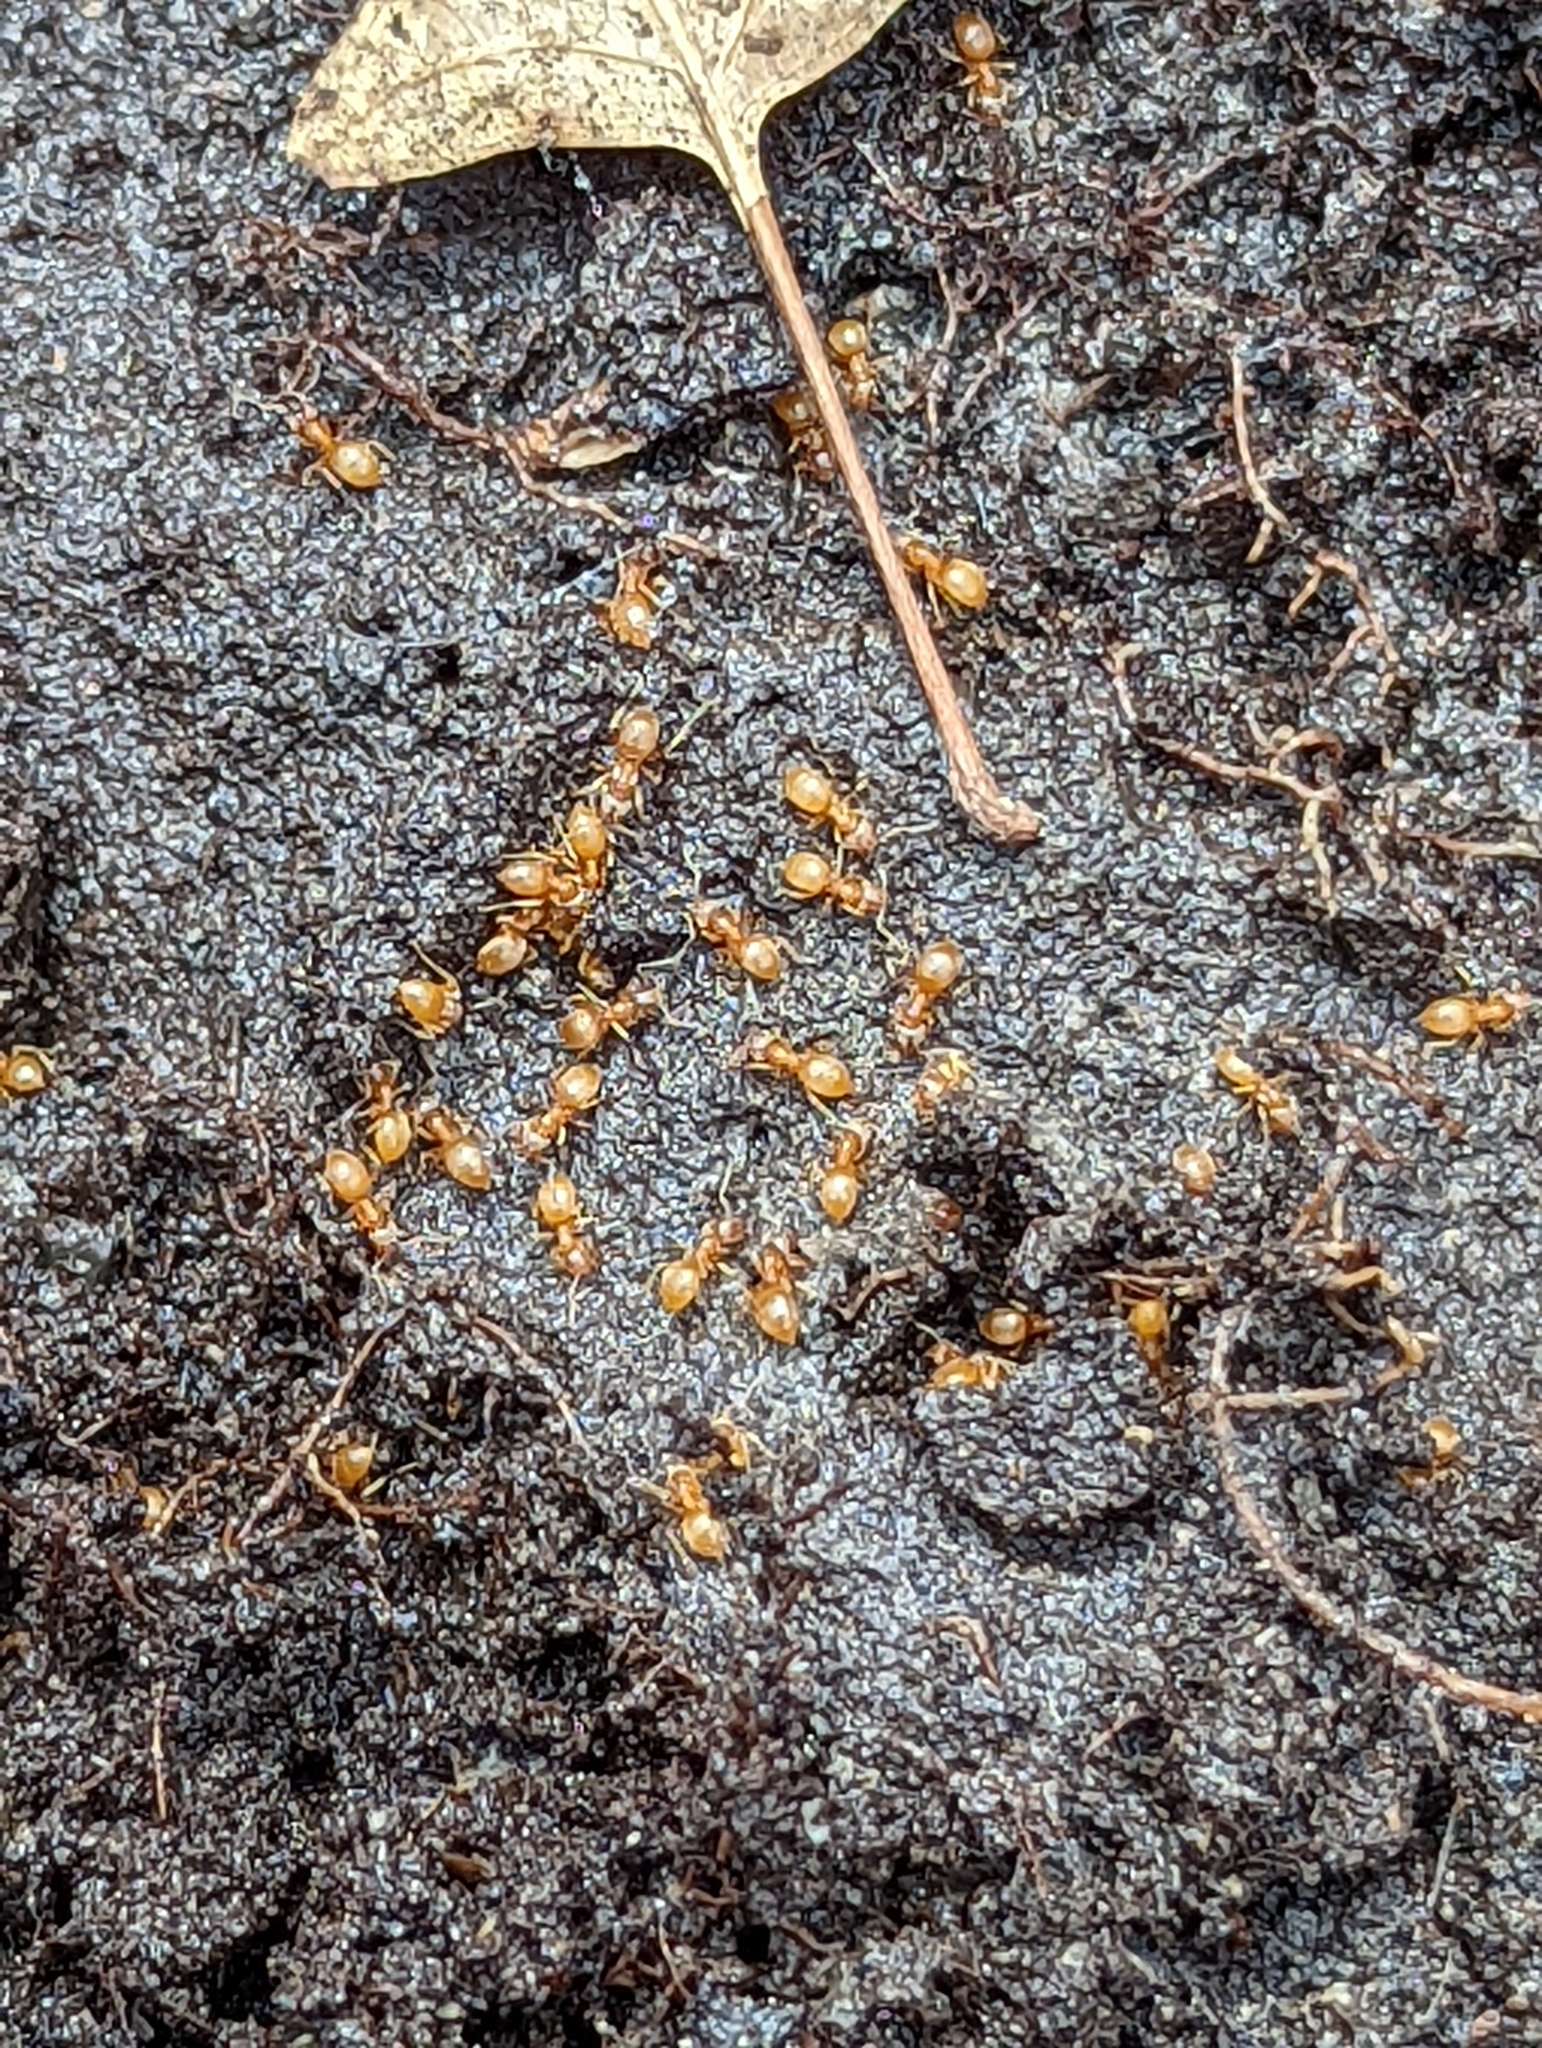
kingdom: Animalia
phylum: Arthropoda
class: Insecta
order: Hymenoptera
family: Formicidae
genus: Lasius
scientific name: Lasius
